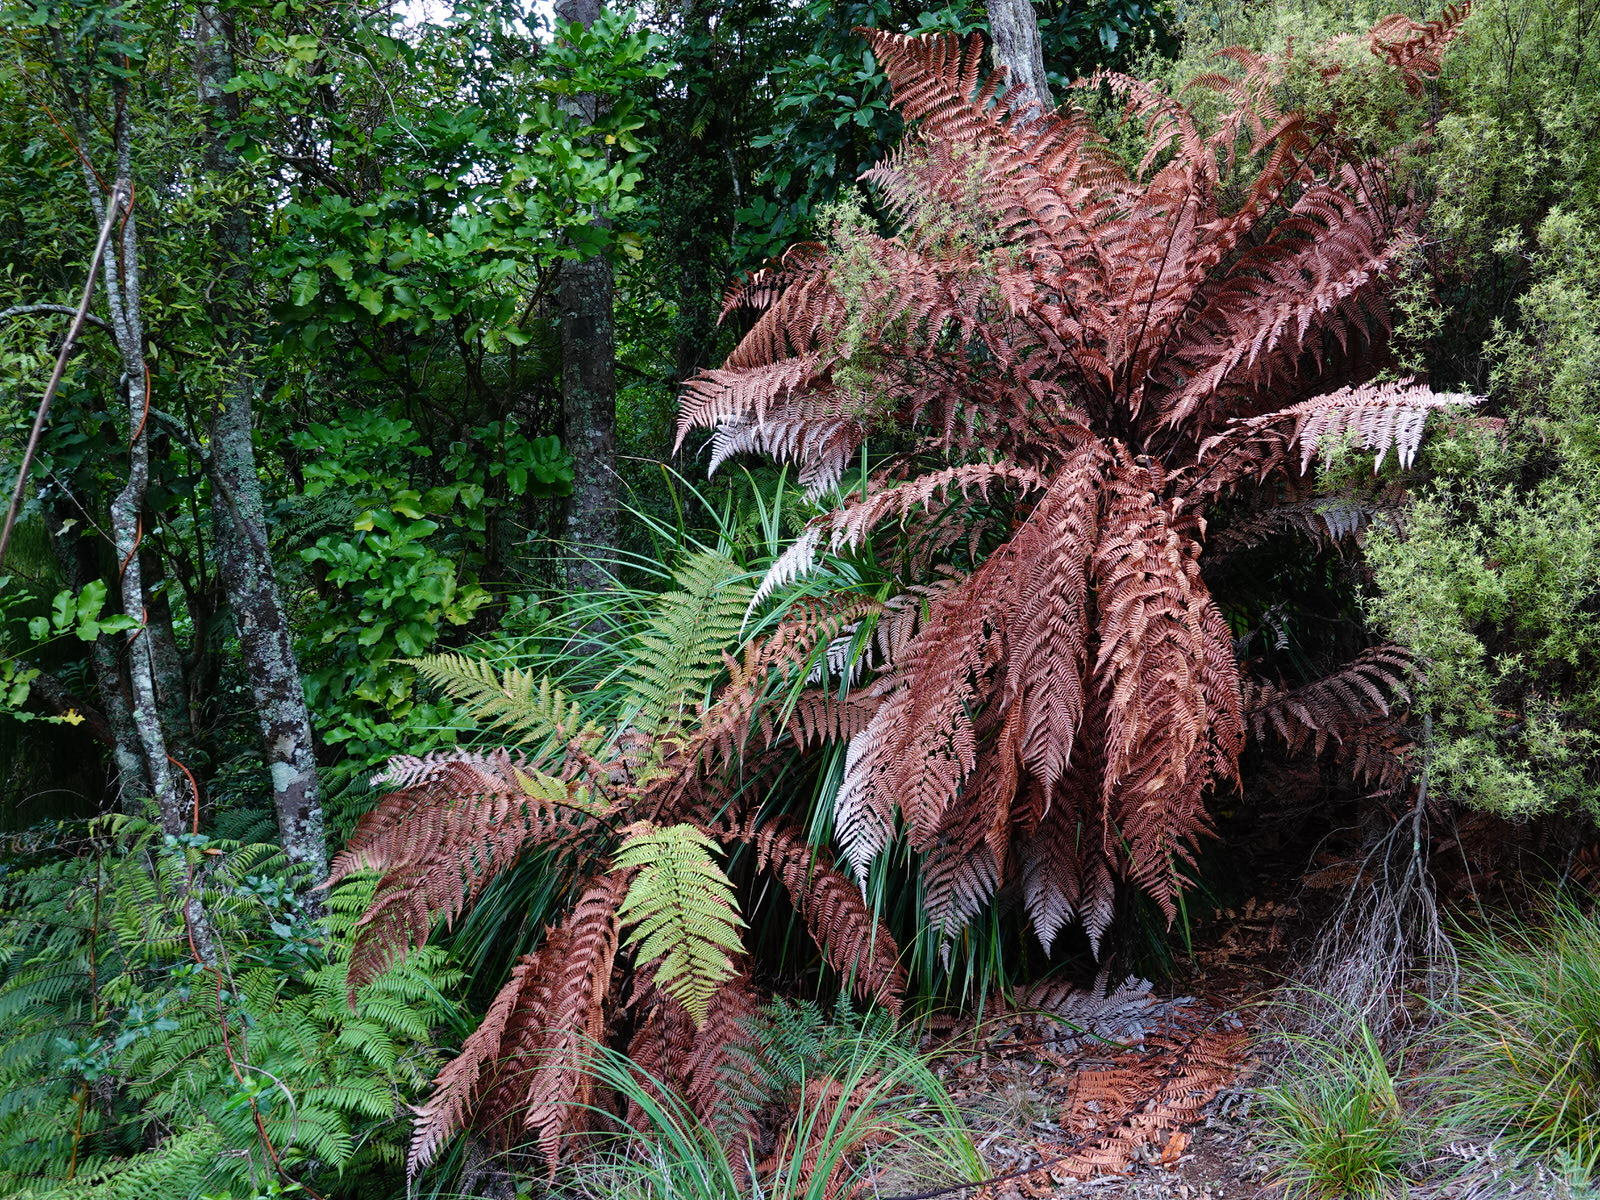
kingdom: Plantae
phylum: Tracheophyta
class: Polypodiopsida
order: Cyatheales
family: Dicksoniaceae
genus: Dicksonia
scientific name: Dicksonia squarrosa
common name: Hard treefern
